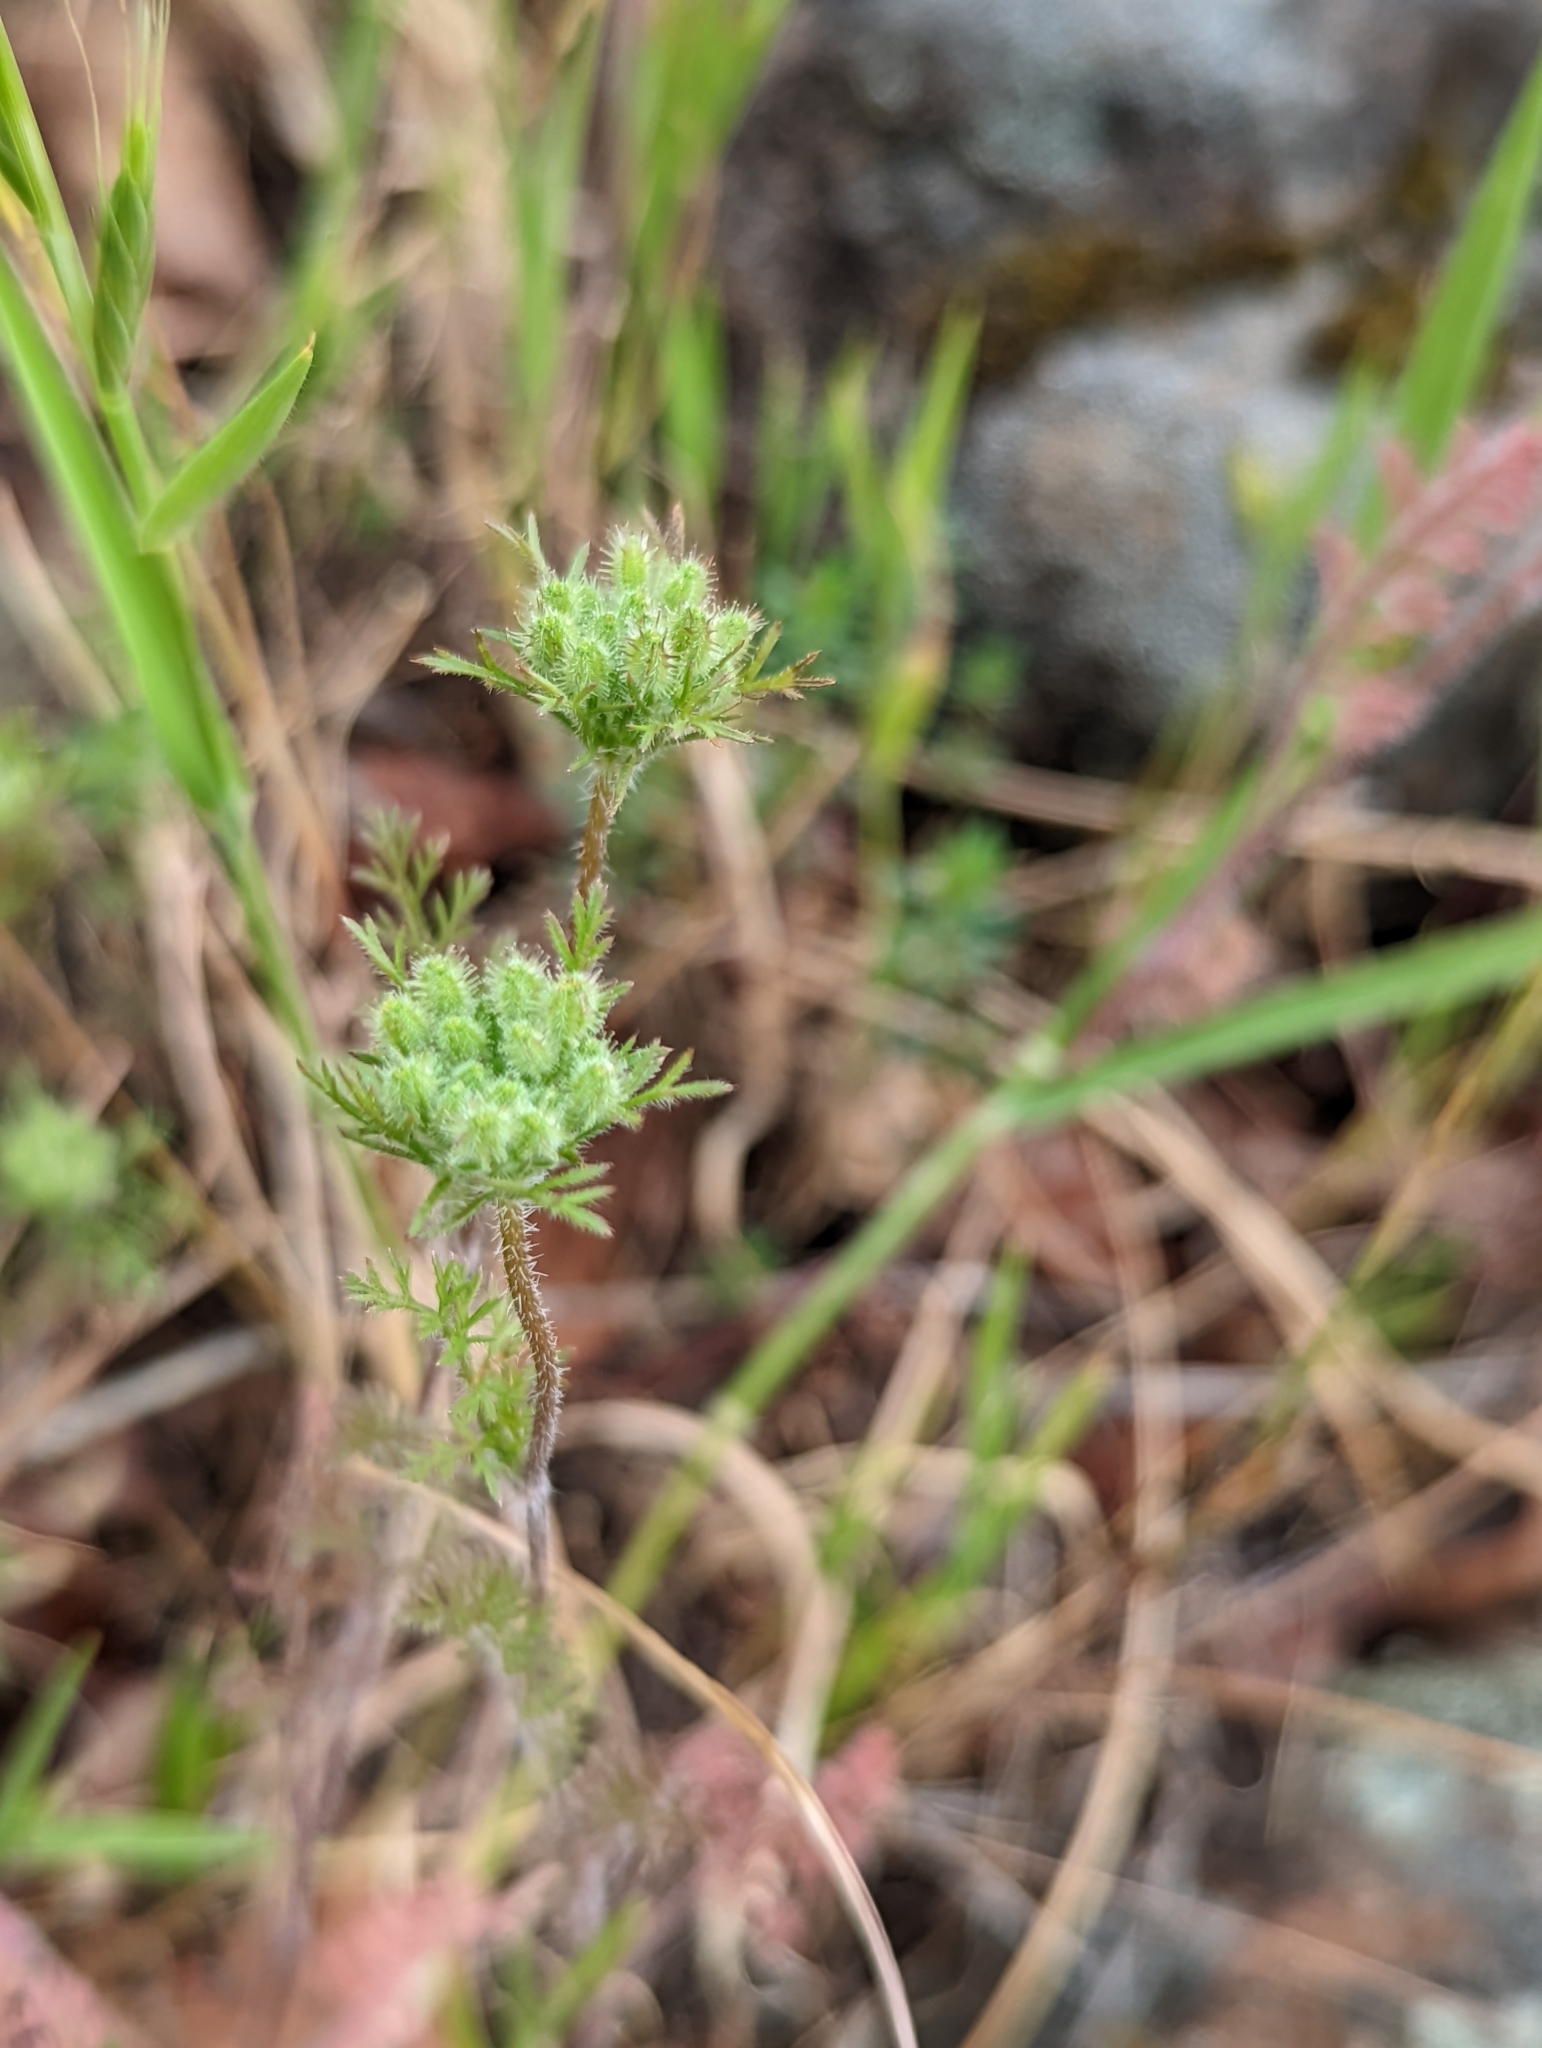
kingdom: Plantae
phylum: Tracheophyta
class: Magnoliopsida
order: Apiales
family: Apiaceae
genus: Daucus
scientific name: Daucus pusillus
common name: Southwest wild carrot
